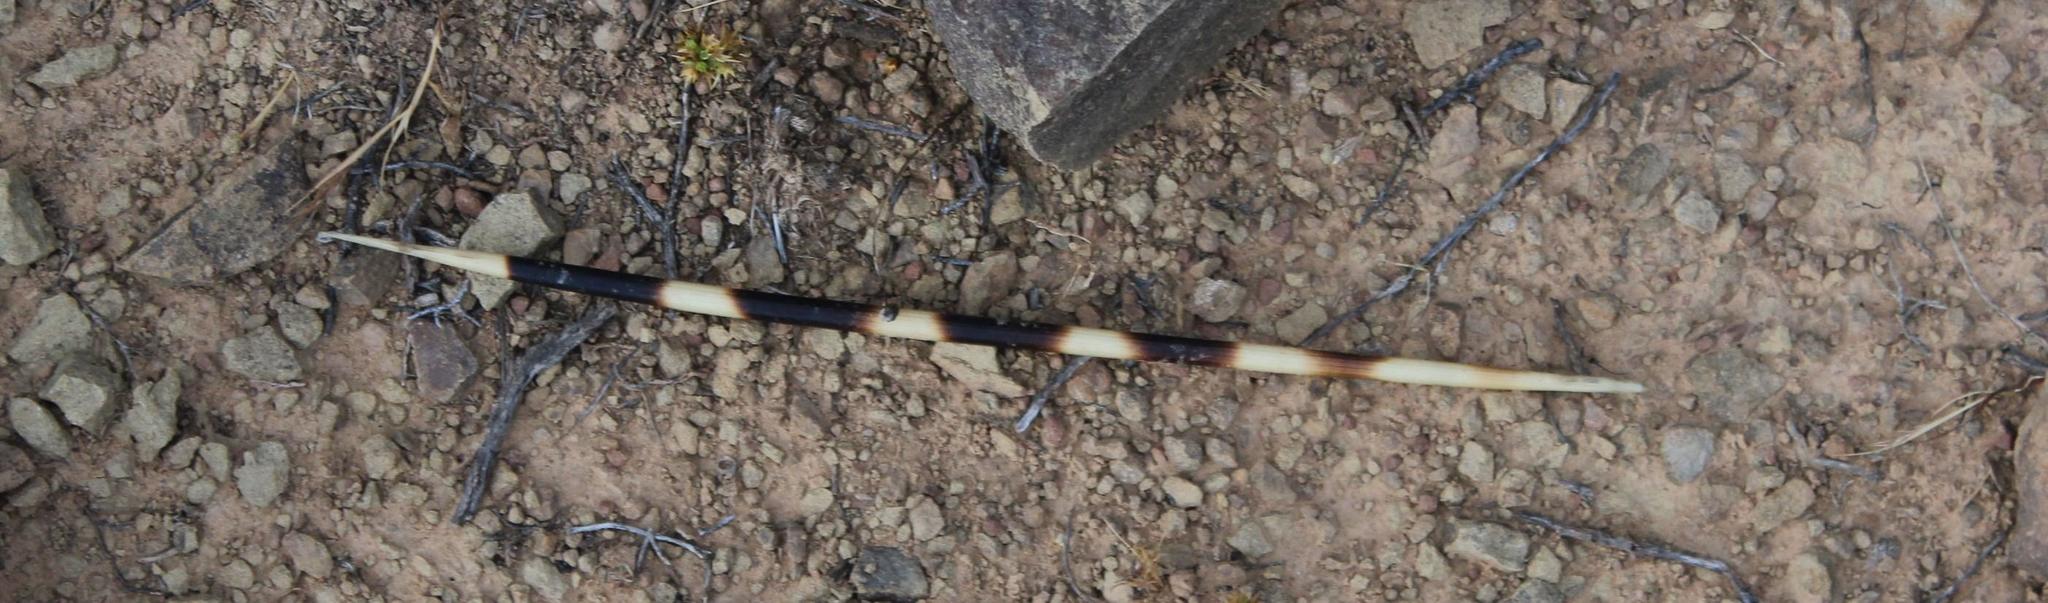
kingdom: Animalia
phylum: Chordata
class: Mammalia
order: Rodentia
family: Hystricidae
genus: Hystrix
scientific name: Hystrix africaeaustralis
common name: Cape porcupine
